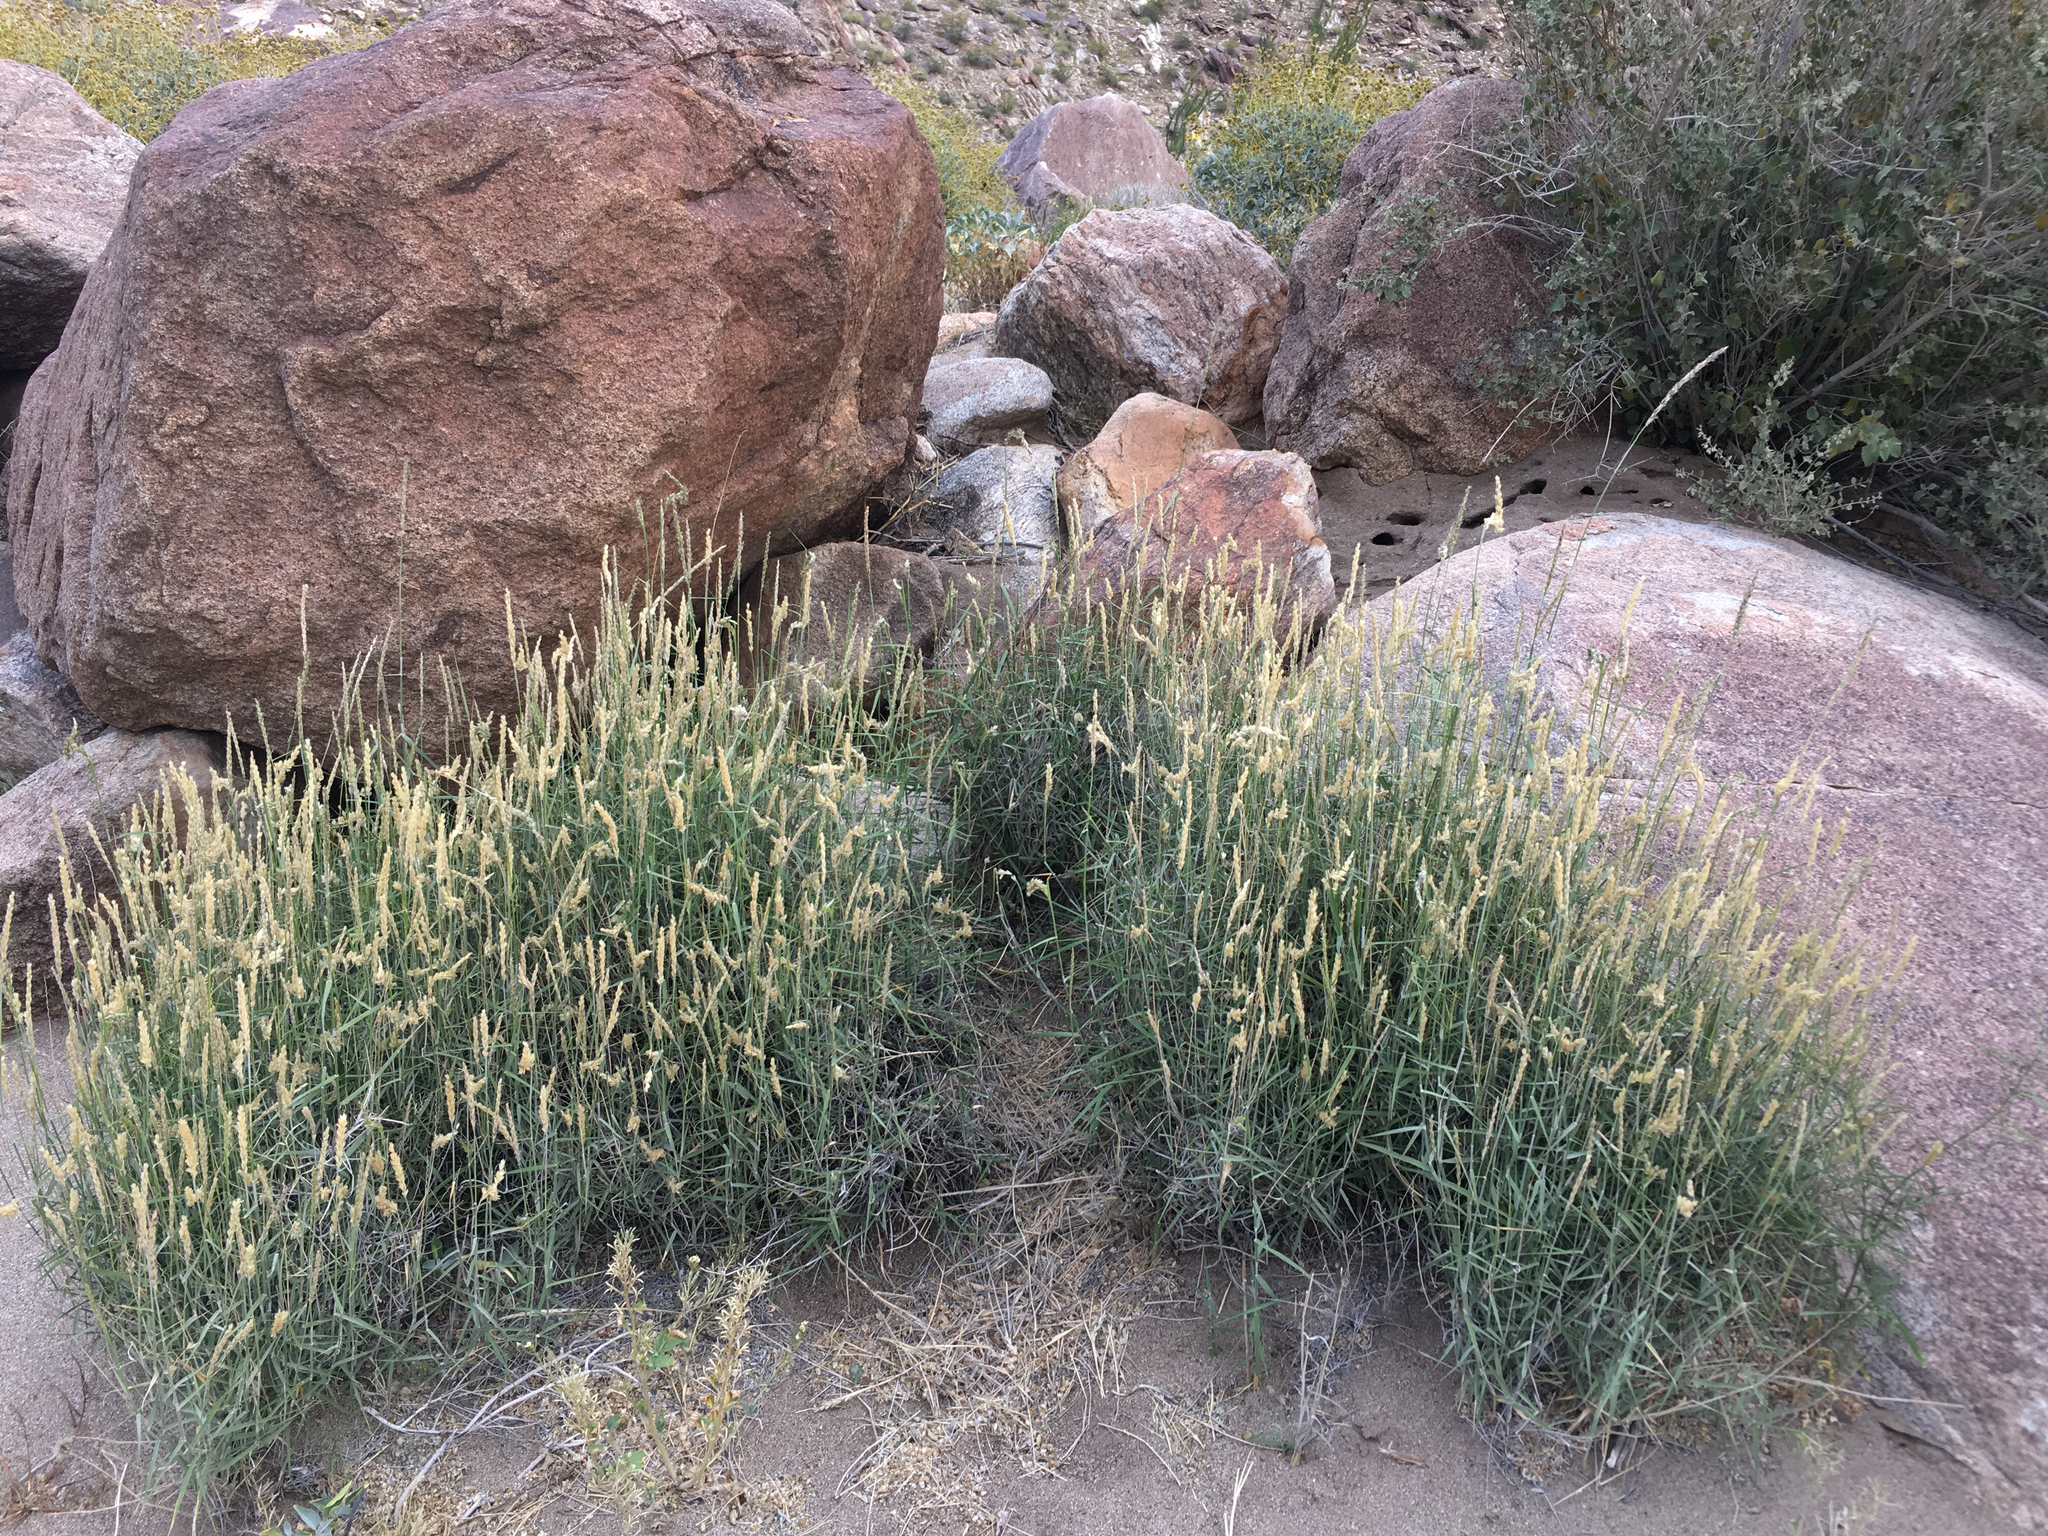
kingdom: Plantae
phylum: Tracheophyta
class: Liliopsida
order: Poales
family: Poaceae
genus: Hilaria
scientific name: Hilaria rigida
